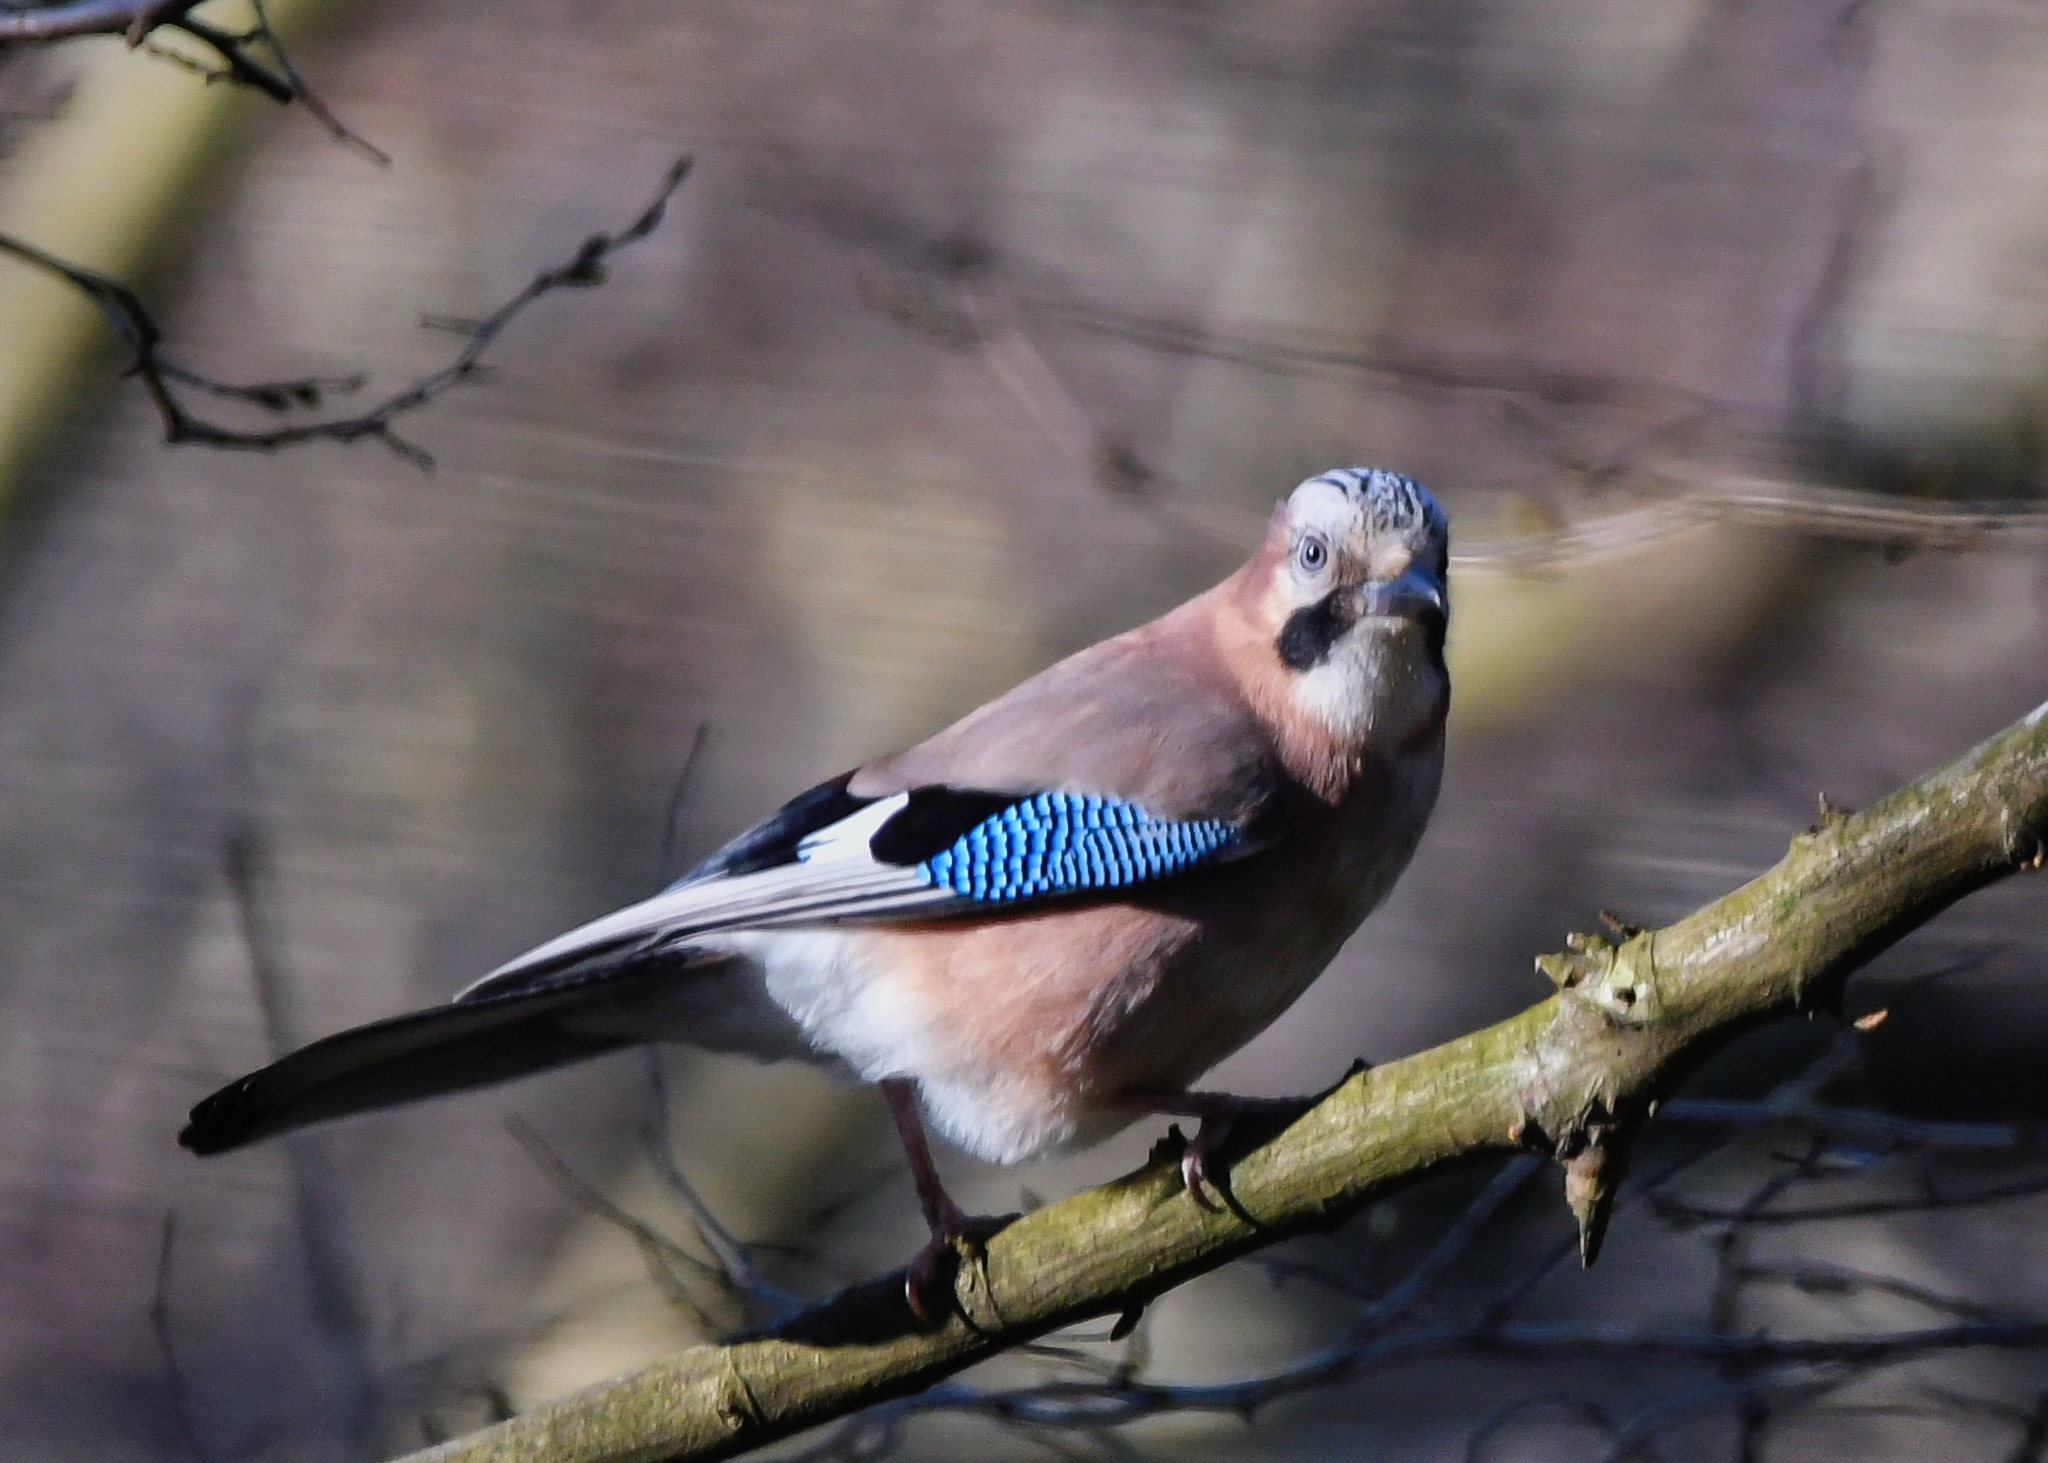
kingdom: Animalia
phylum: Chordata
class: Aves
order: Passeriformes
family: Corvidae
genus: Garrulus
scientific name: Garrulus glandarius
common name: Eurasian jay
